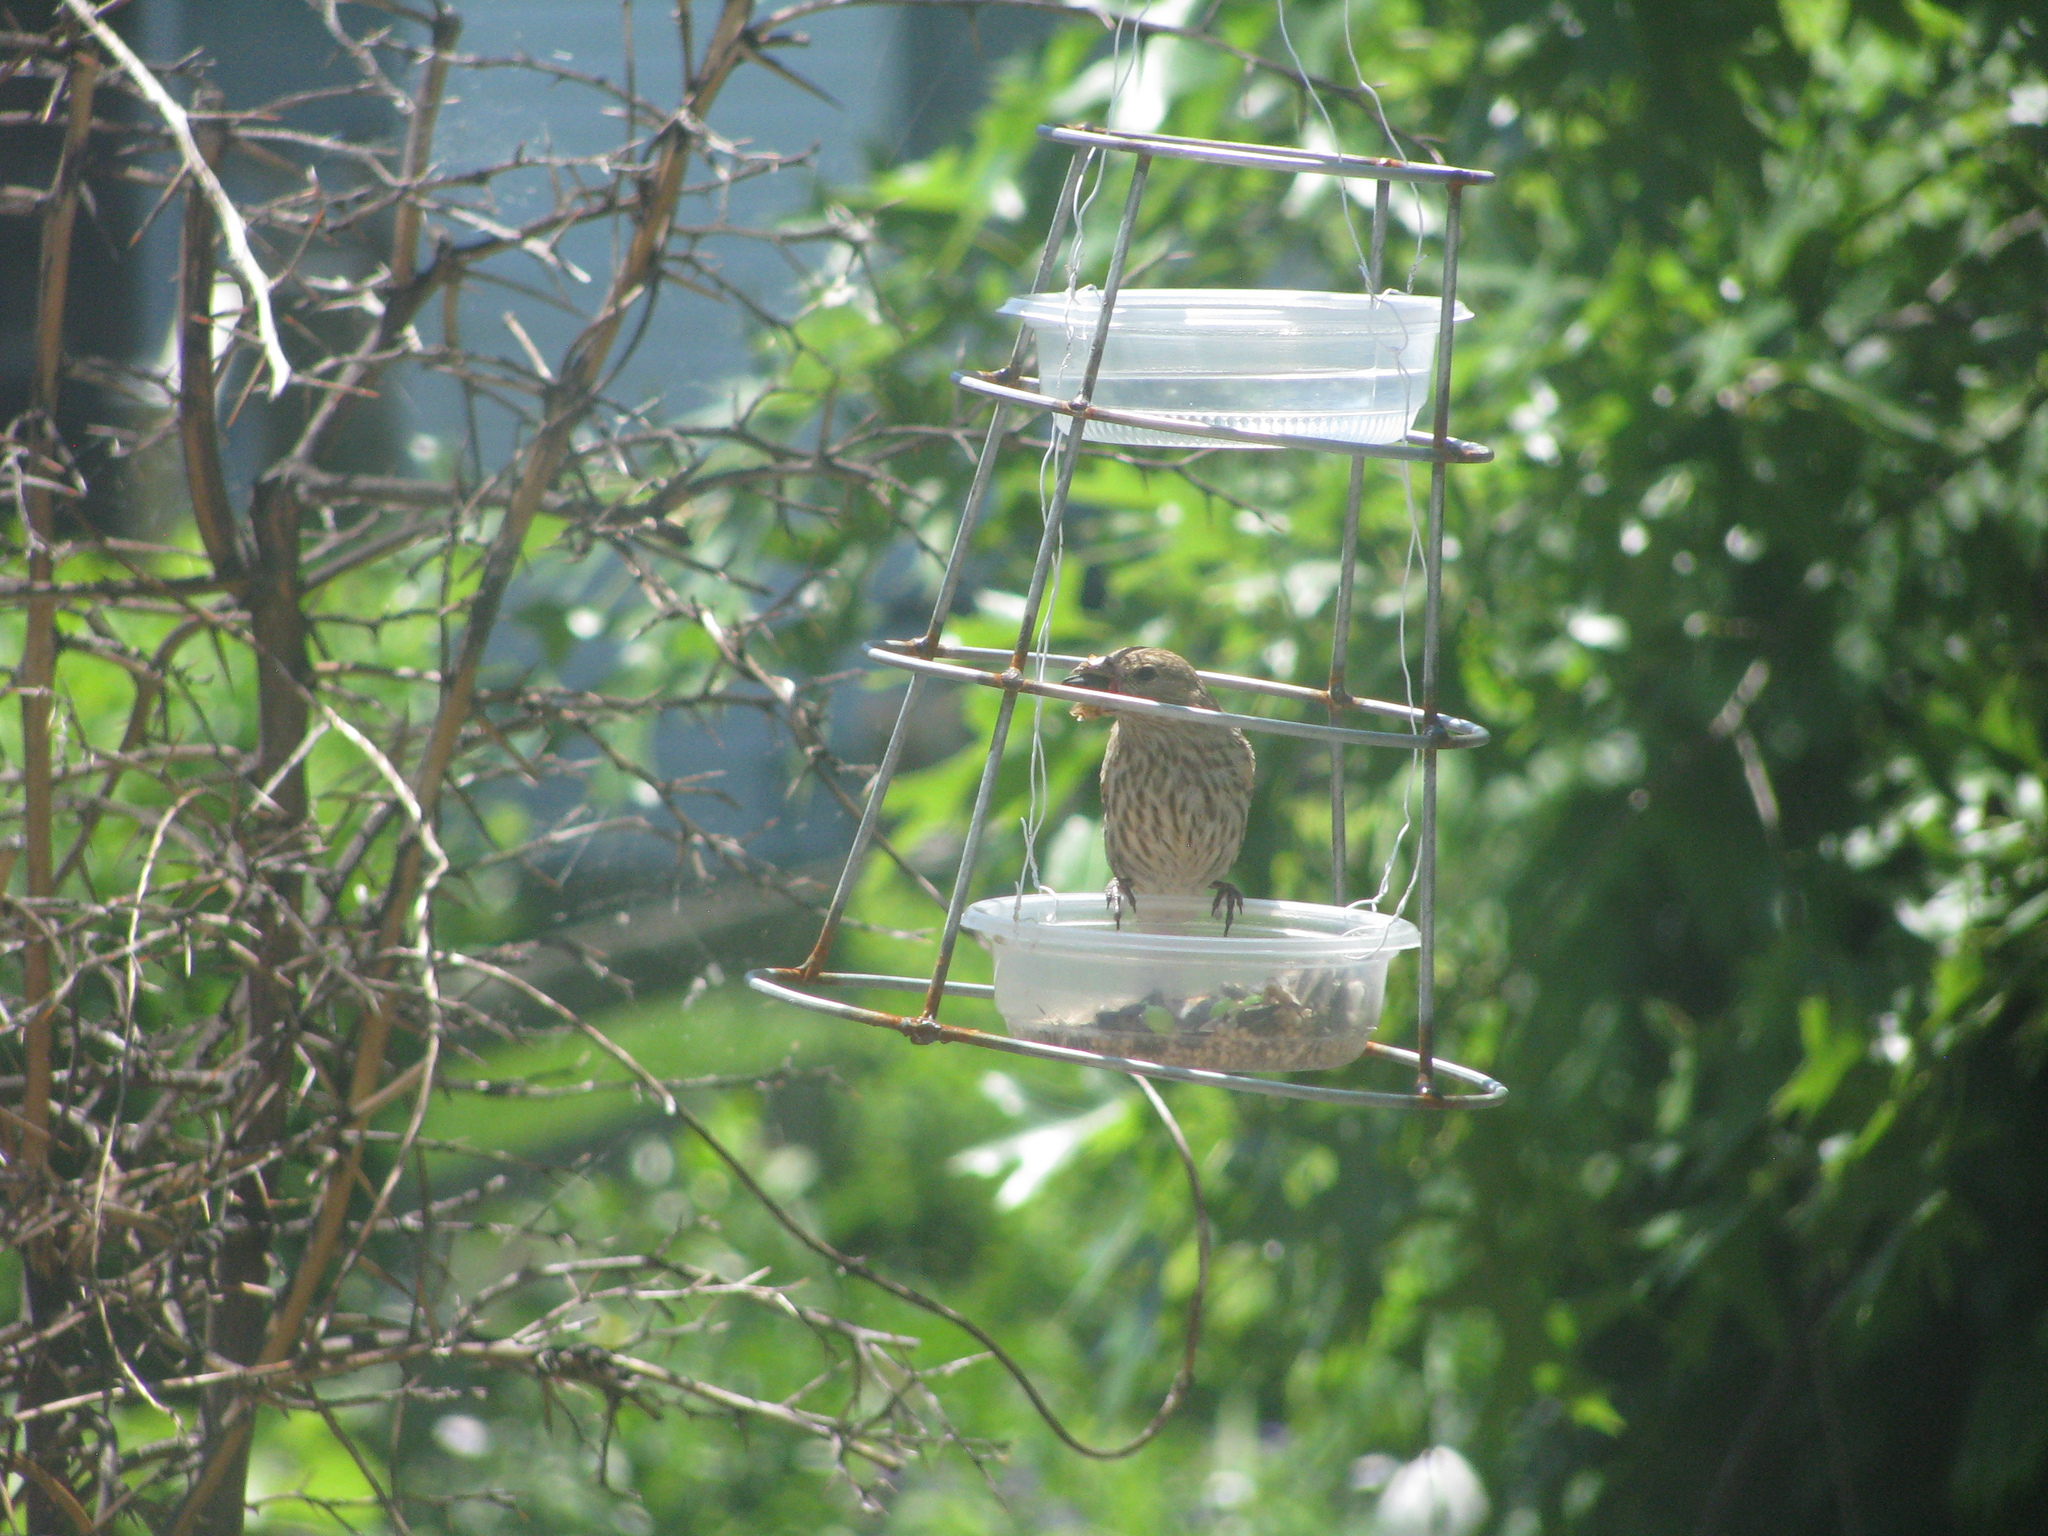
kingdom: Animalia
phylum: Chordata
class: Aves
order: Passeriformes
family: Fringillidae
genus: Haemorhous
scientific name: Haemorhous mexicanus
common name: House finch
